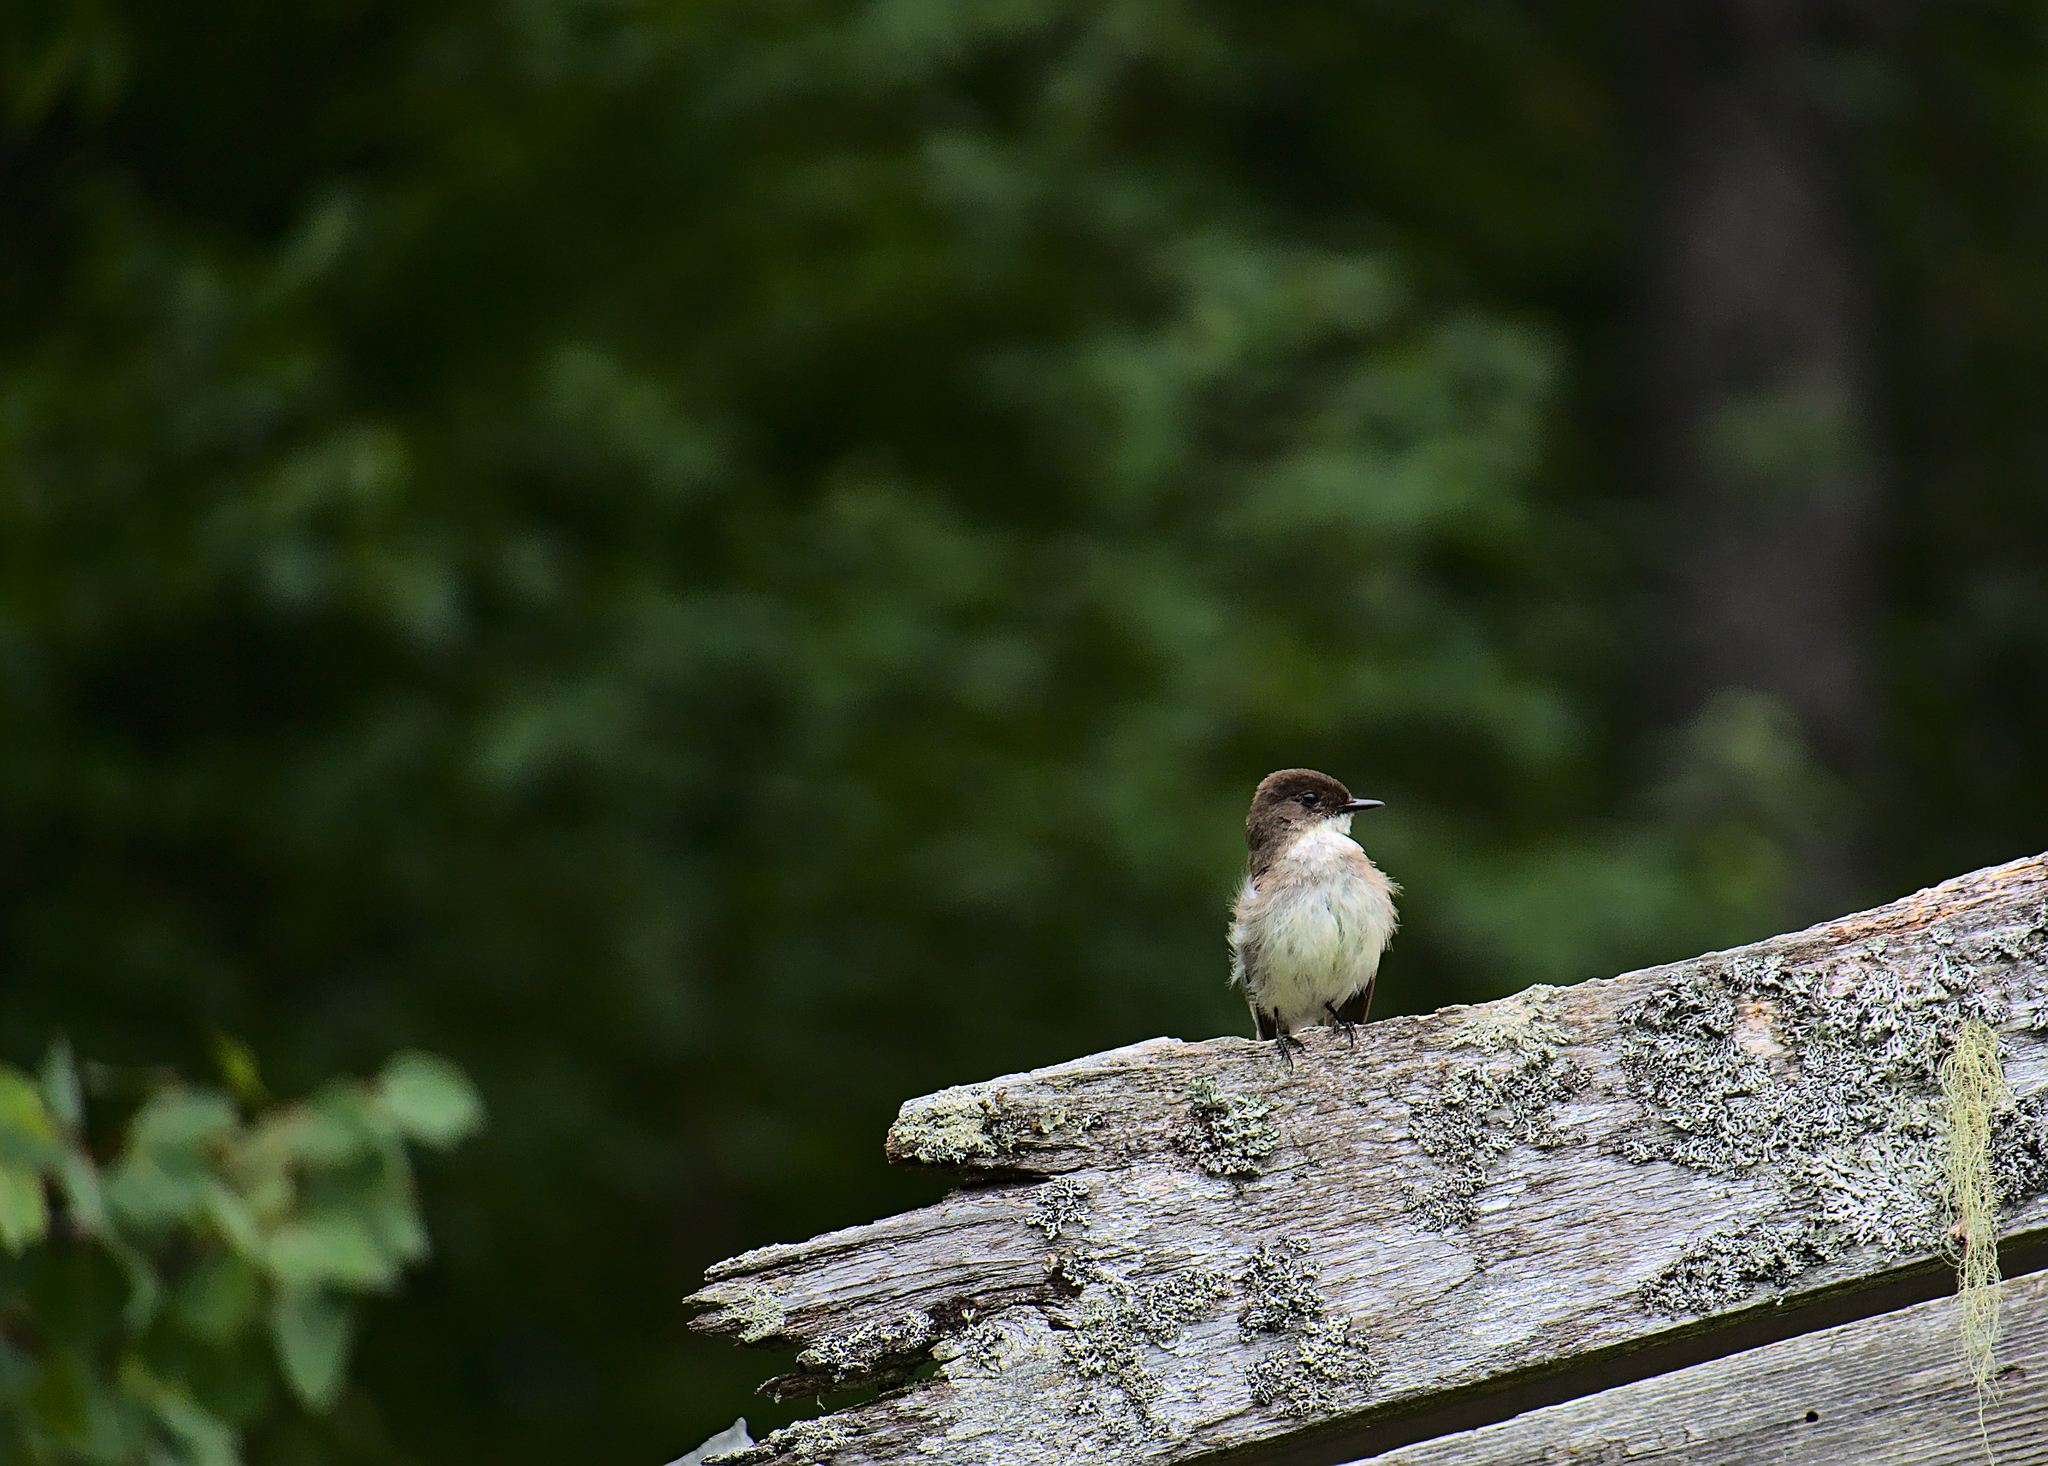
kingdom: Animalia
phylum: Chordata
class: Aves
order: Passeriformes
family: Tyrannidae
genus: Sayornis
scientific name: Sayornis phoebe
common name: Eastern phoebe
